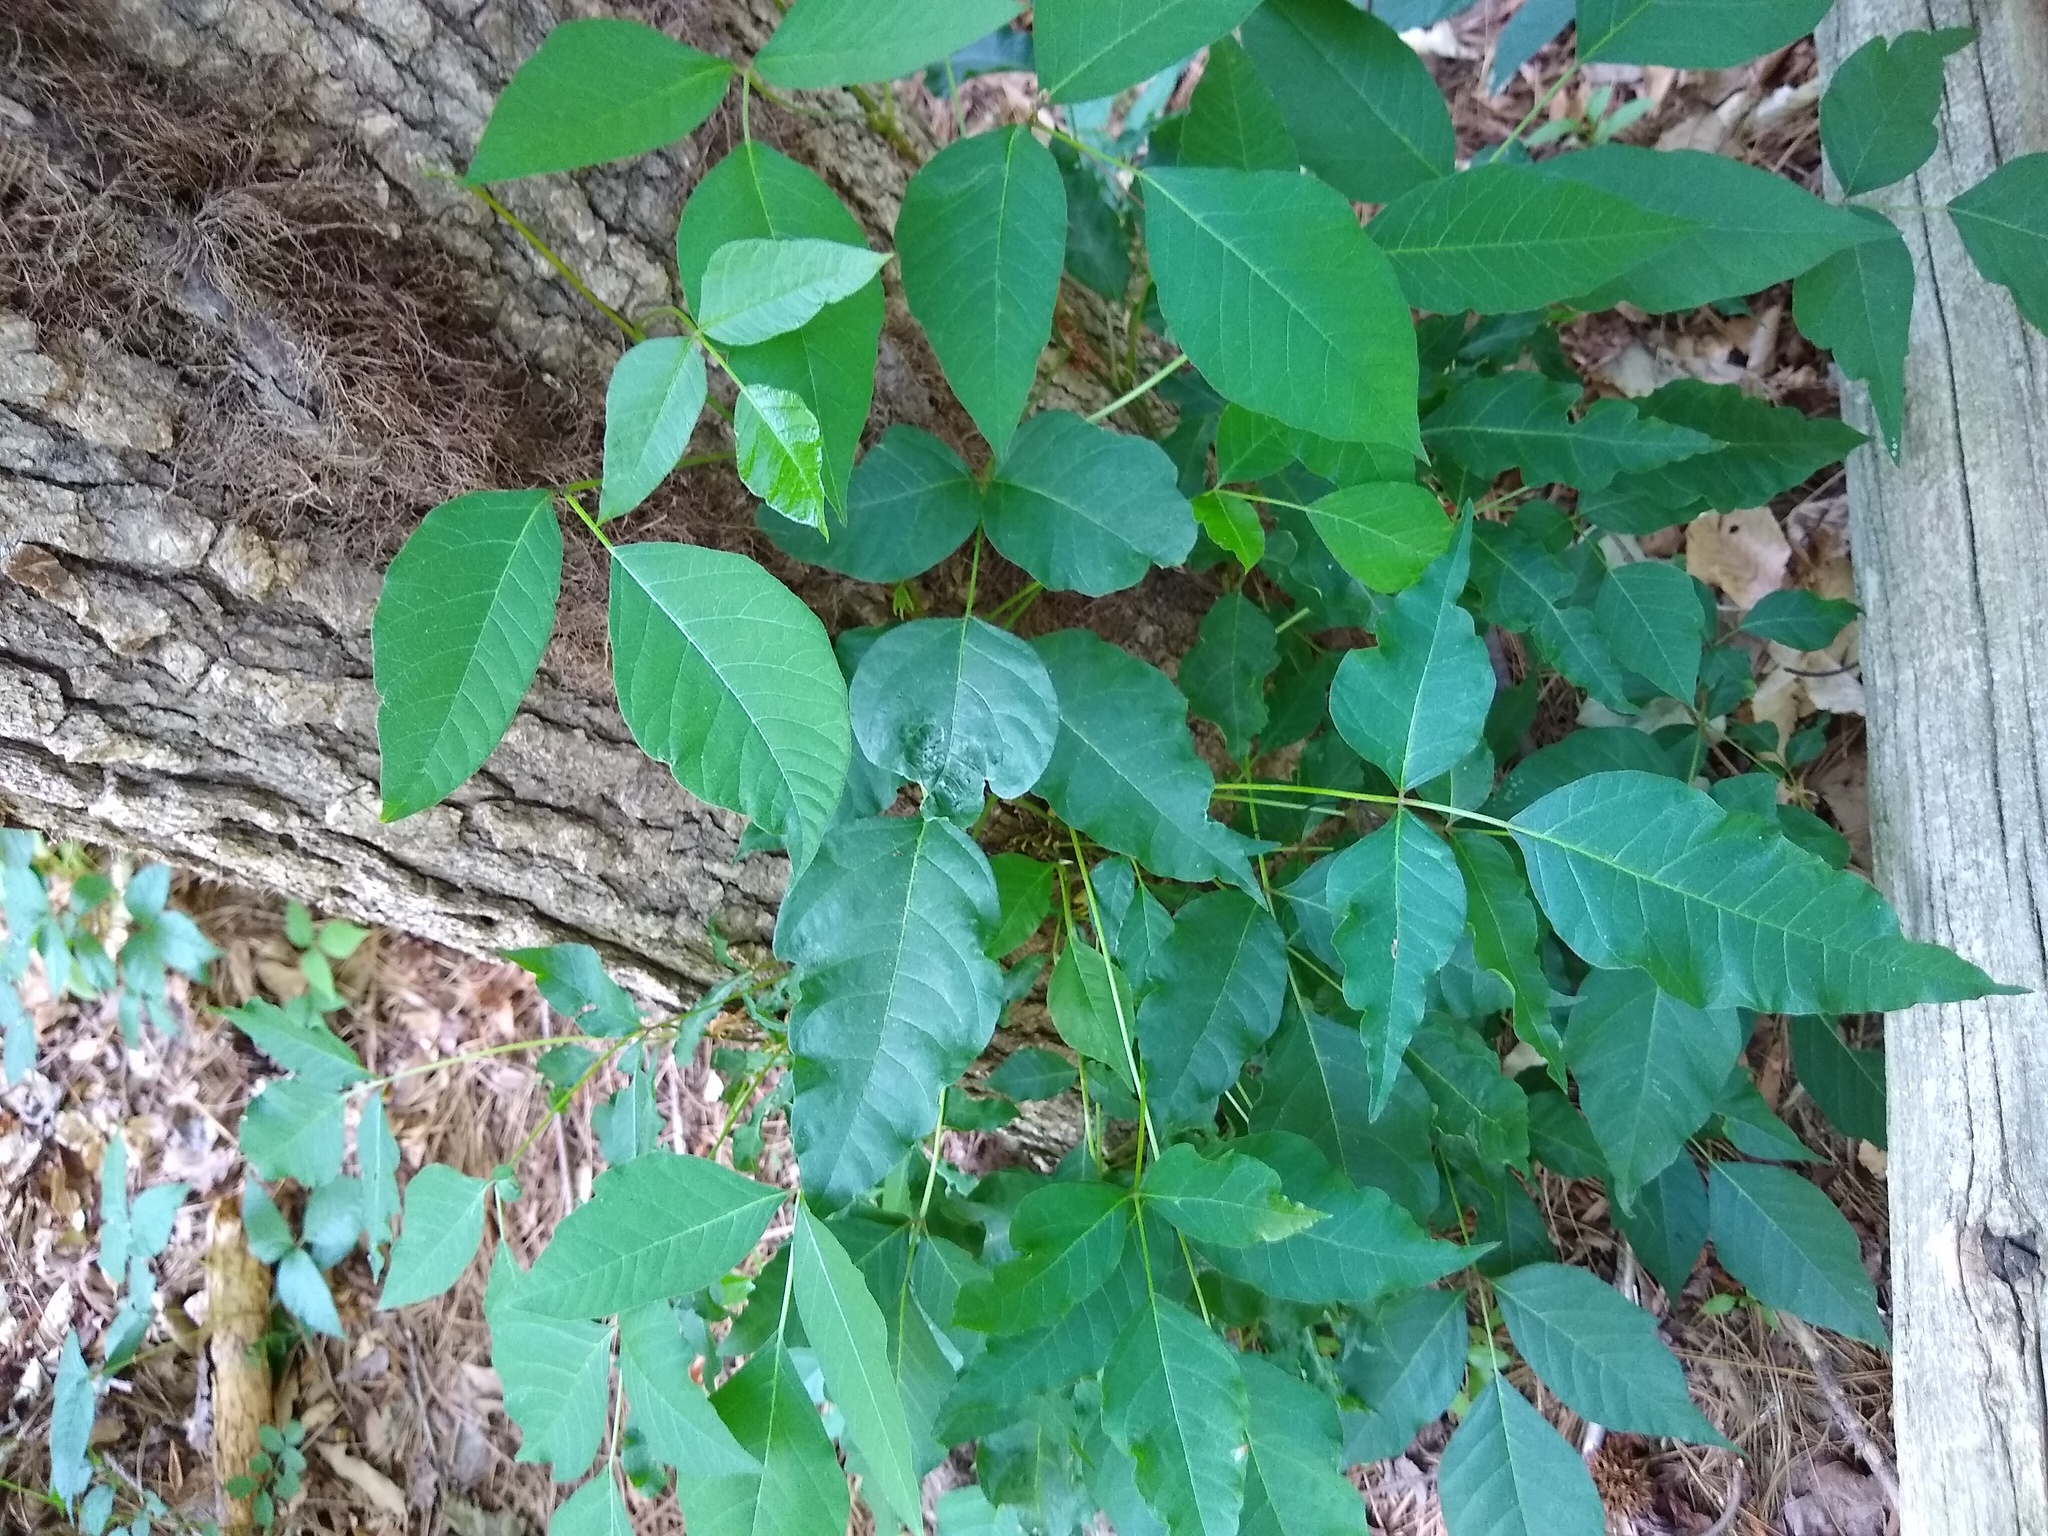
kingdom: Plantae
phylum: Tracheophyta
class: Magnoliopsida
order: Sapindales
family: Anacardiaceae
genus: Toxicodendron
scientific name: Toxicodendron radicans
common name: Poison ivy
